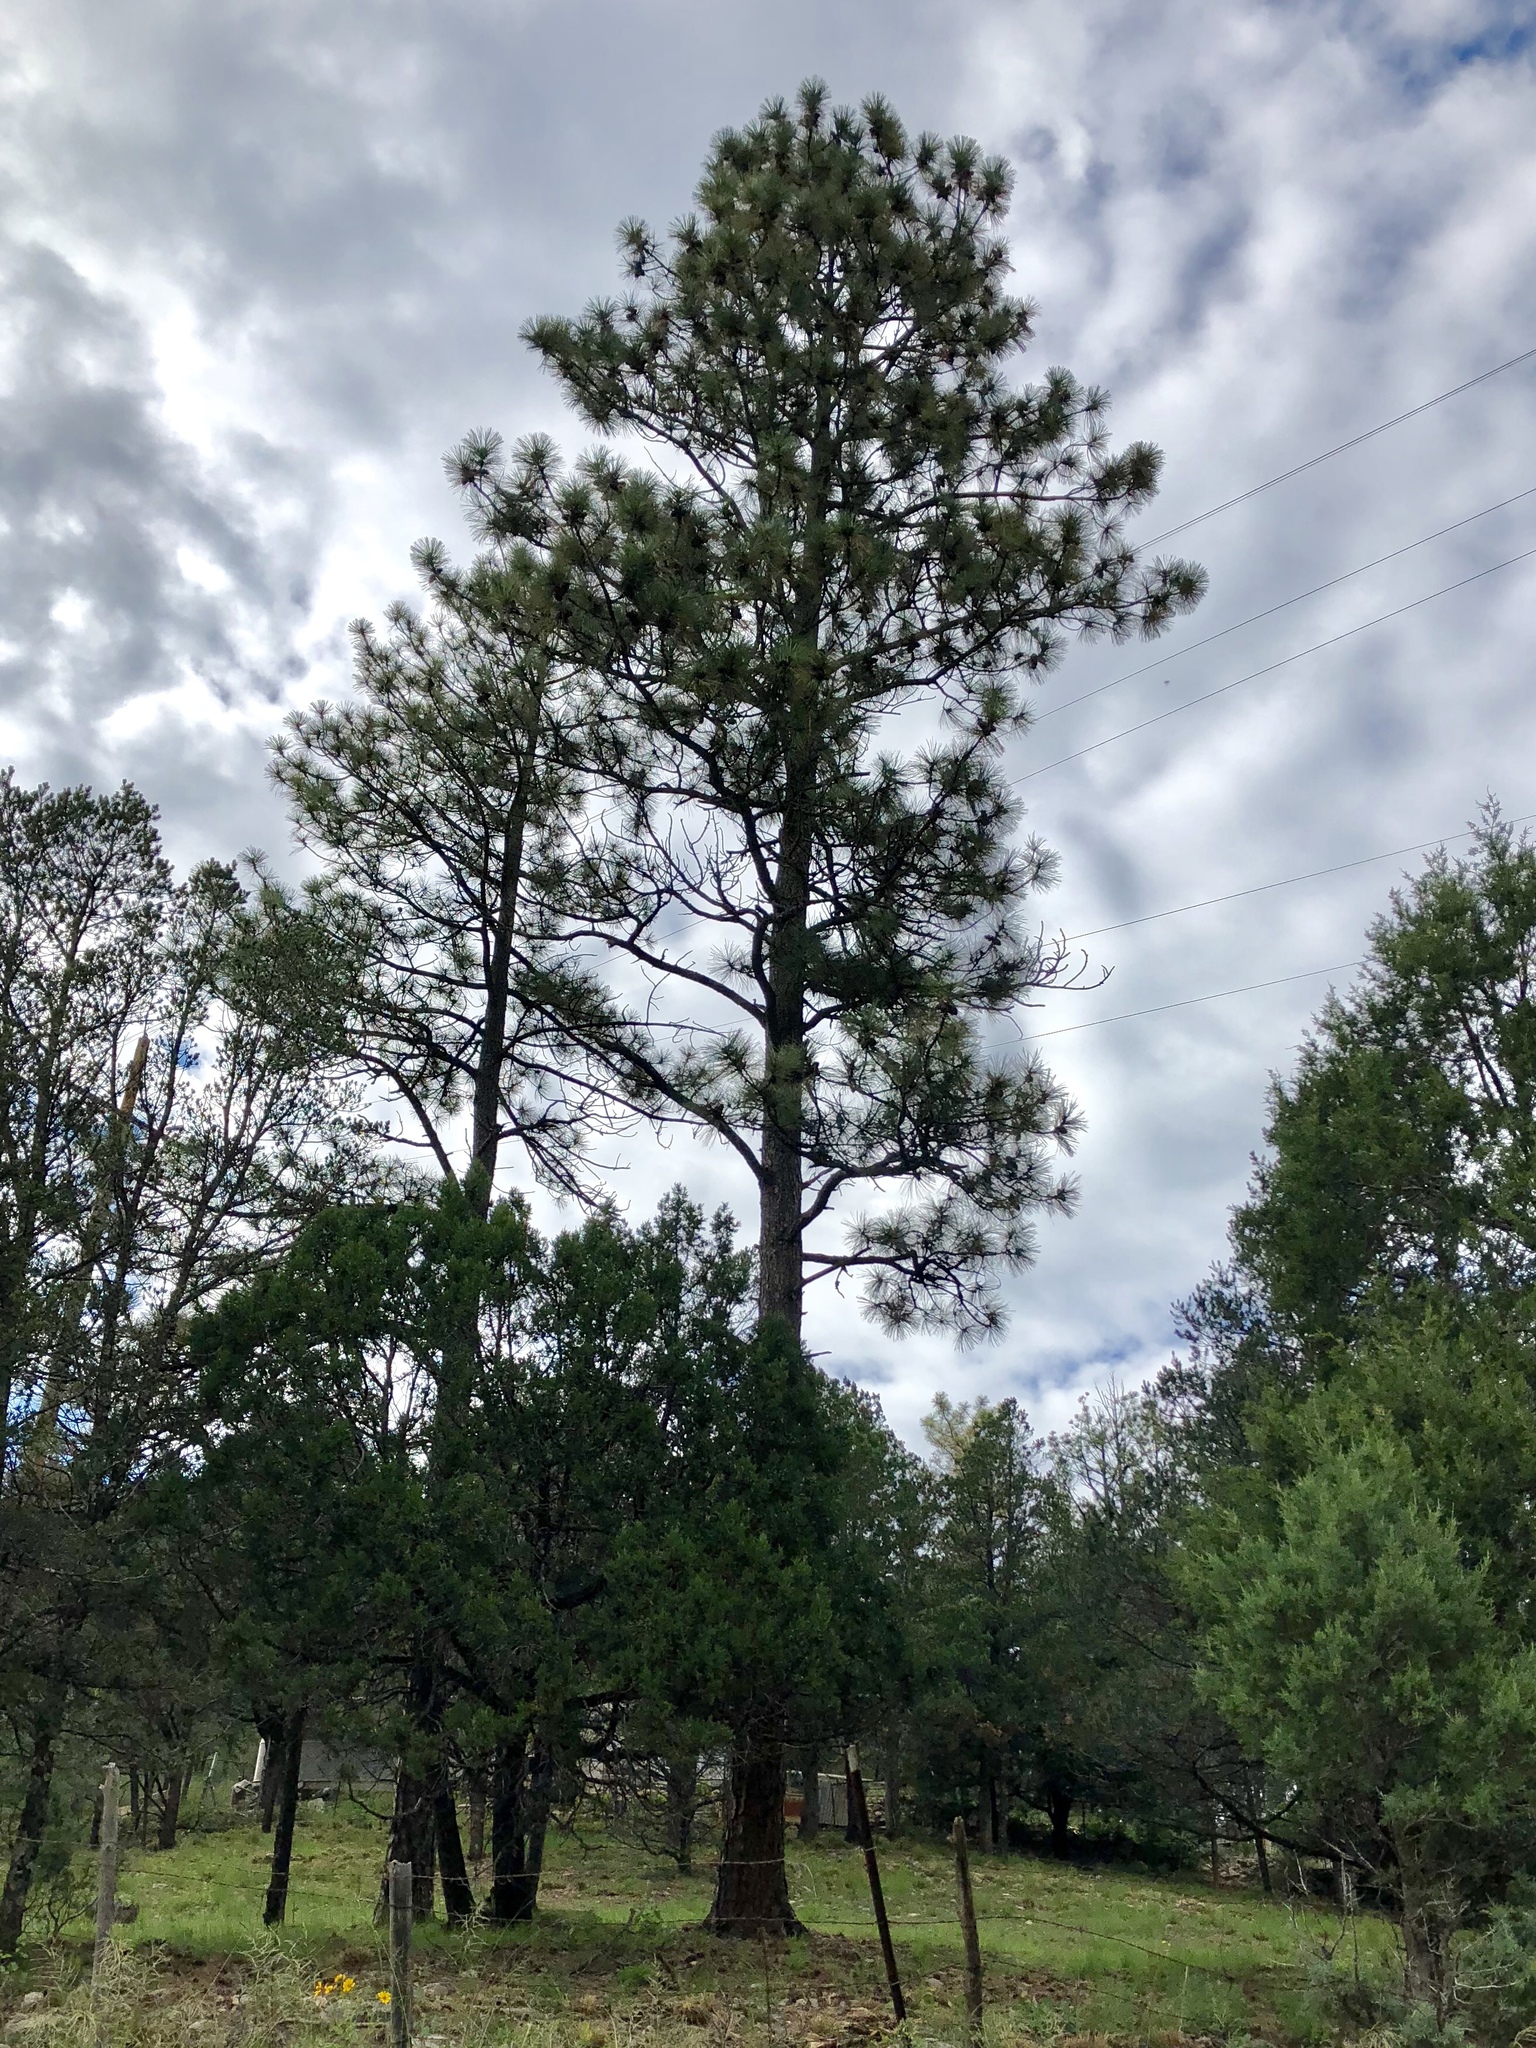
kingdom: Plantae
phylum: Tracheophyta
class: Pinopsida
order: Pinales
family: Pinaceae
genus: Pinus
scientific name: Pinus ponderosa
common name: Western yellow-pine
